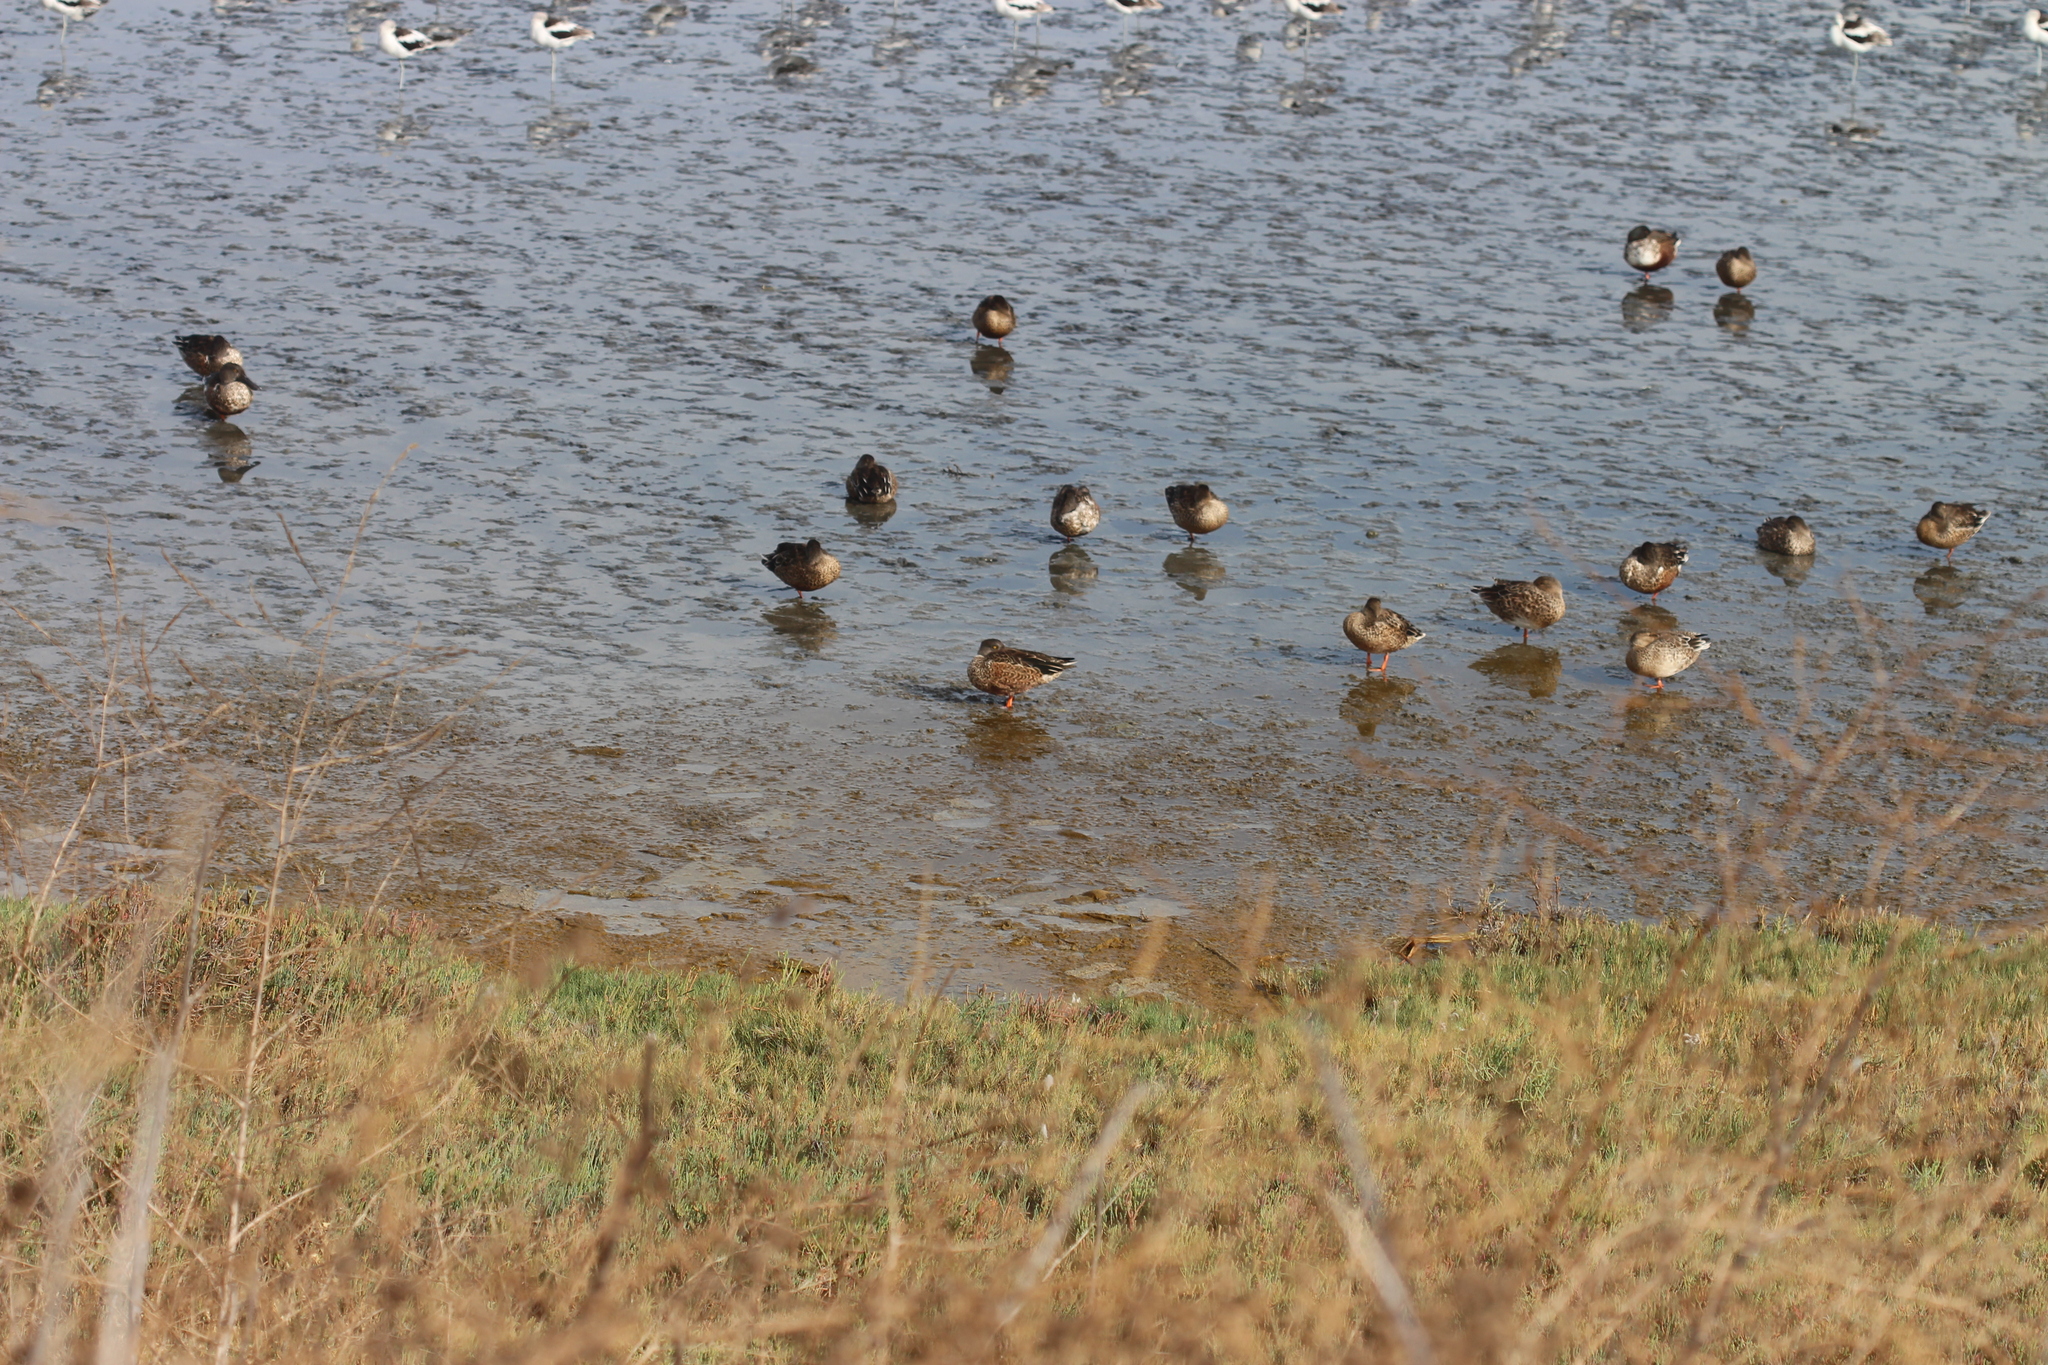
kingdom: Animalia
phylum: Chordata
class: Aves
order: Anseriformes
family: Anatidae
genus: Spatula
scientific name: Spatula clypeata
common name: Northern shoveler
